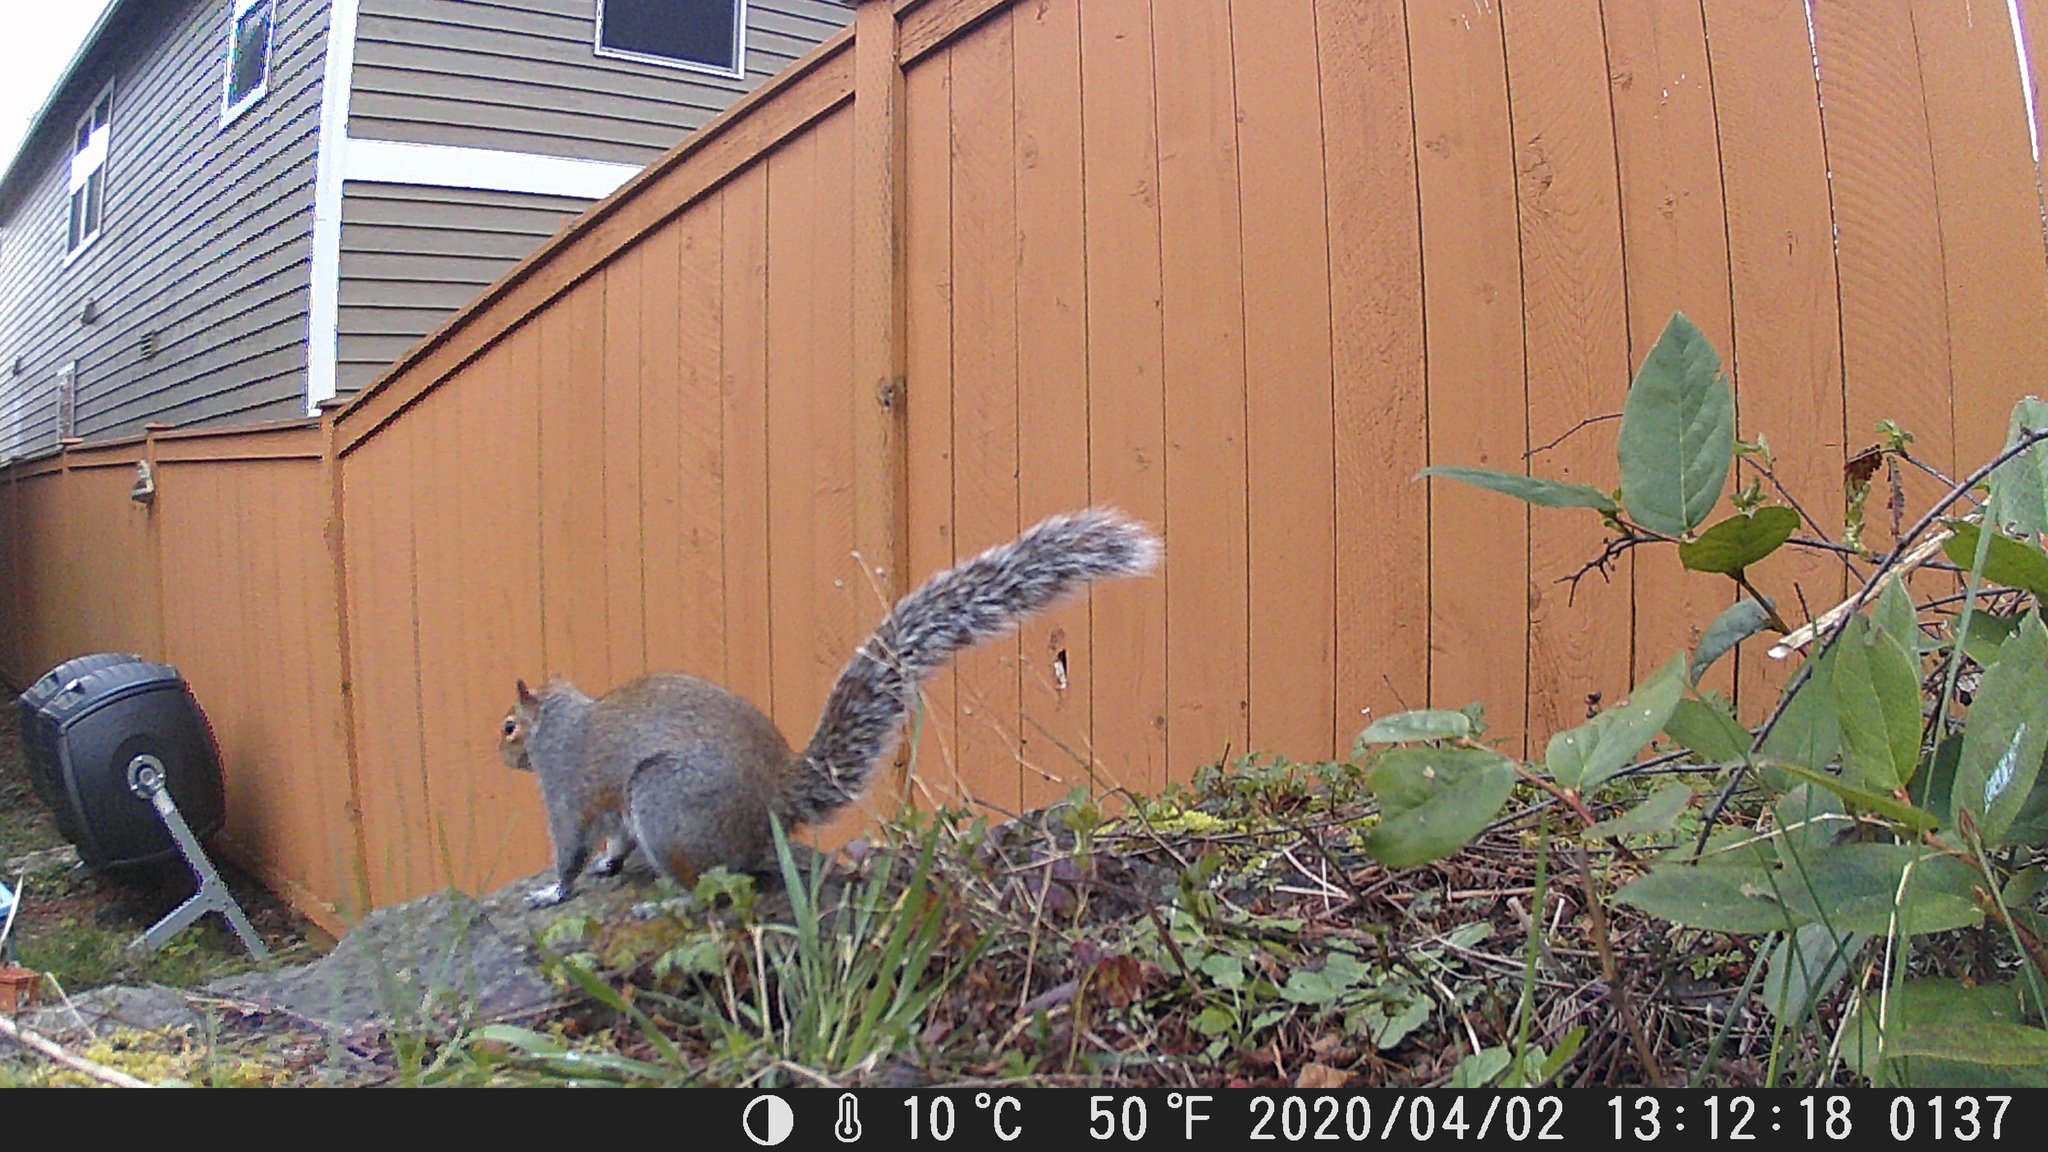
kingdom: Animalia
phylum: Chordata
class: Mammalia
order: Rodentia
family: Sciuridae
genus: Sciurus
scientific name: Sciurus carolinensis
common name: Eastern gray squirrel
